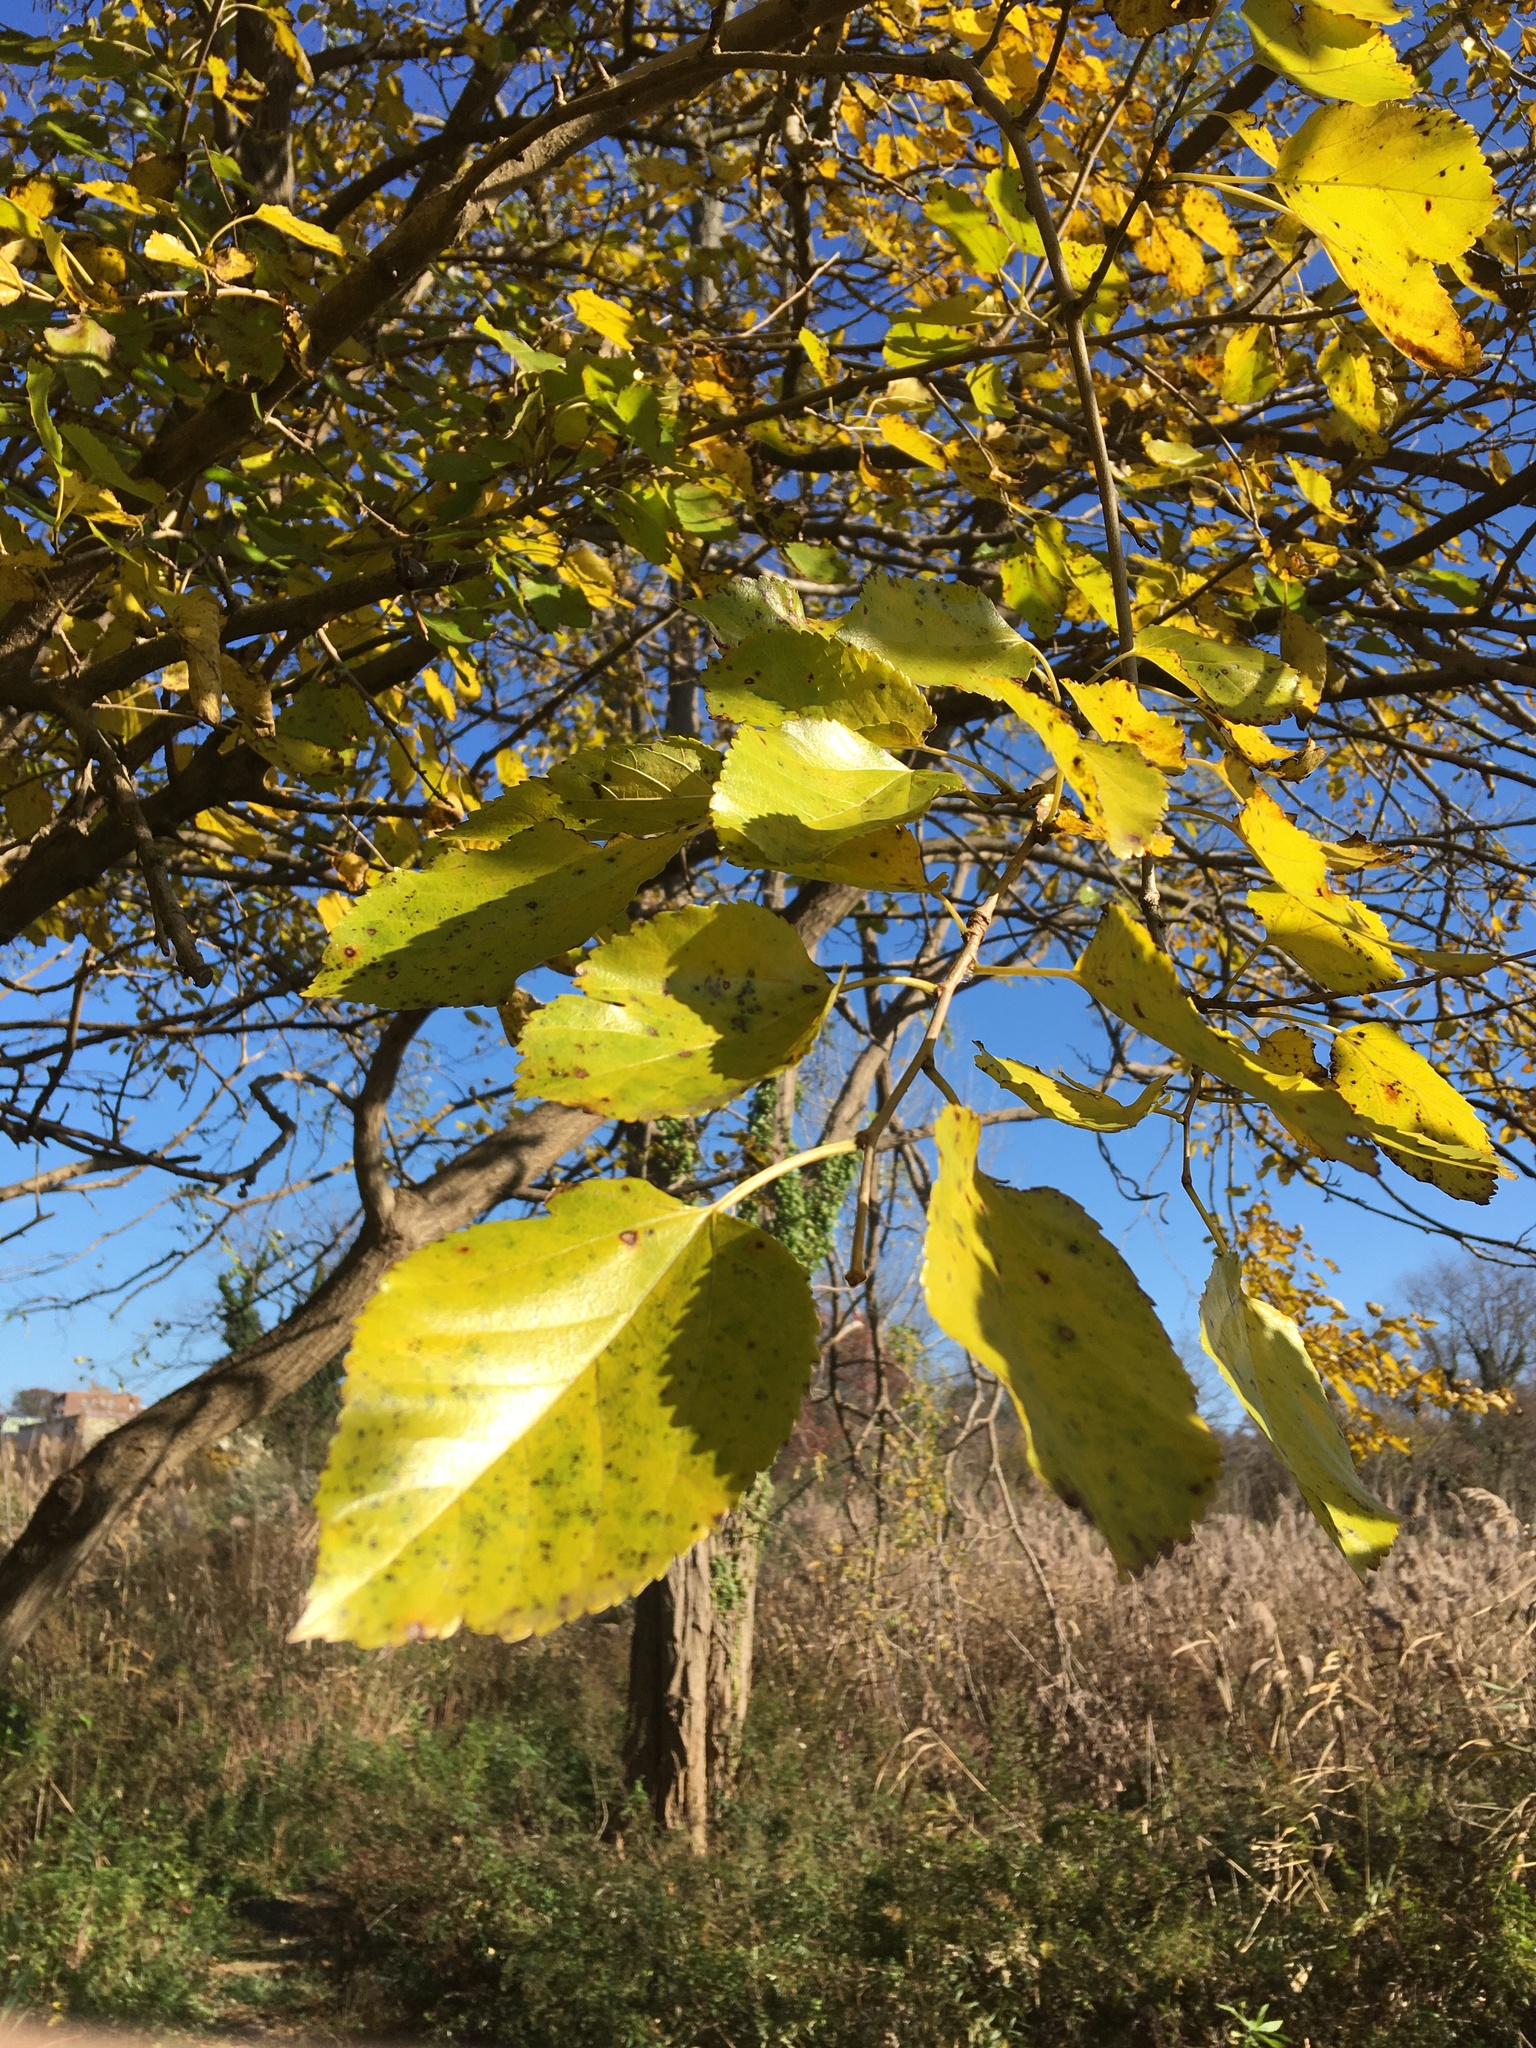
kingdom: Plantae
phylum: Tracheophyta
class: Magnoliopsida
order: Rosales
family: Moraceae
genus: Morus
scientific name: Morus alba
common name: White mulberry
